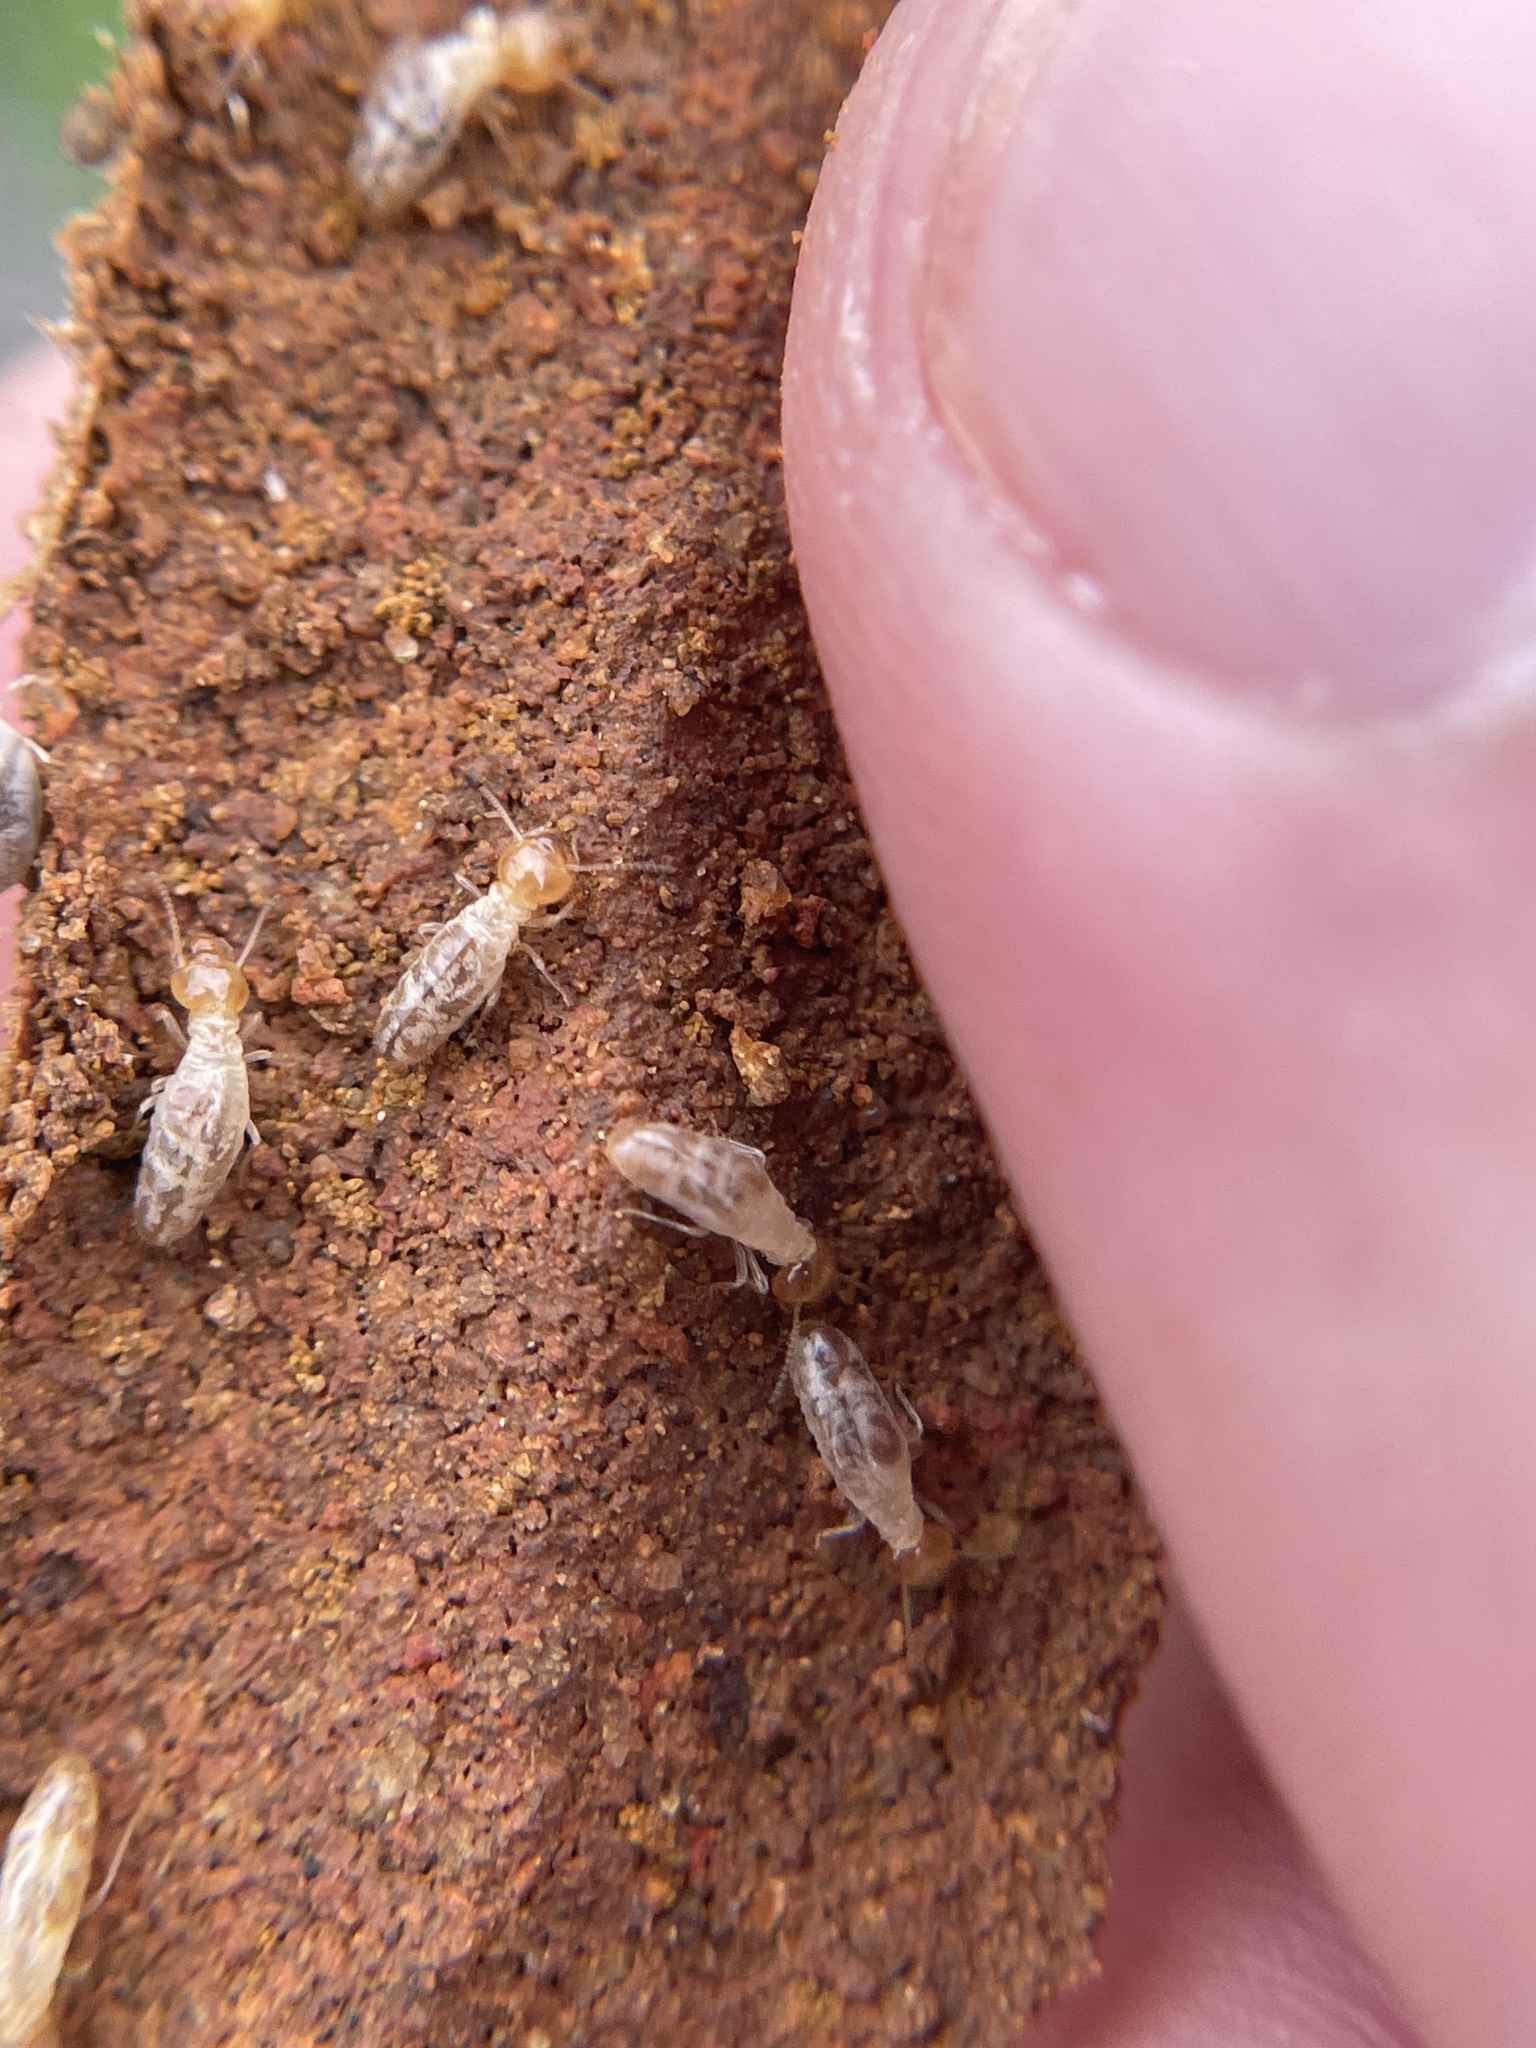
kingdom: Animalia
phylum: Arthropoda
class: Insecta
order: Blattodea
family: Termitidae
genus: Gnathamitermes
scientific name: Gnathamitermes
